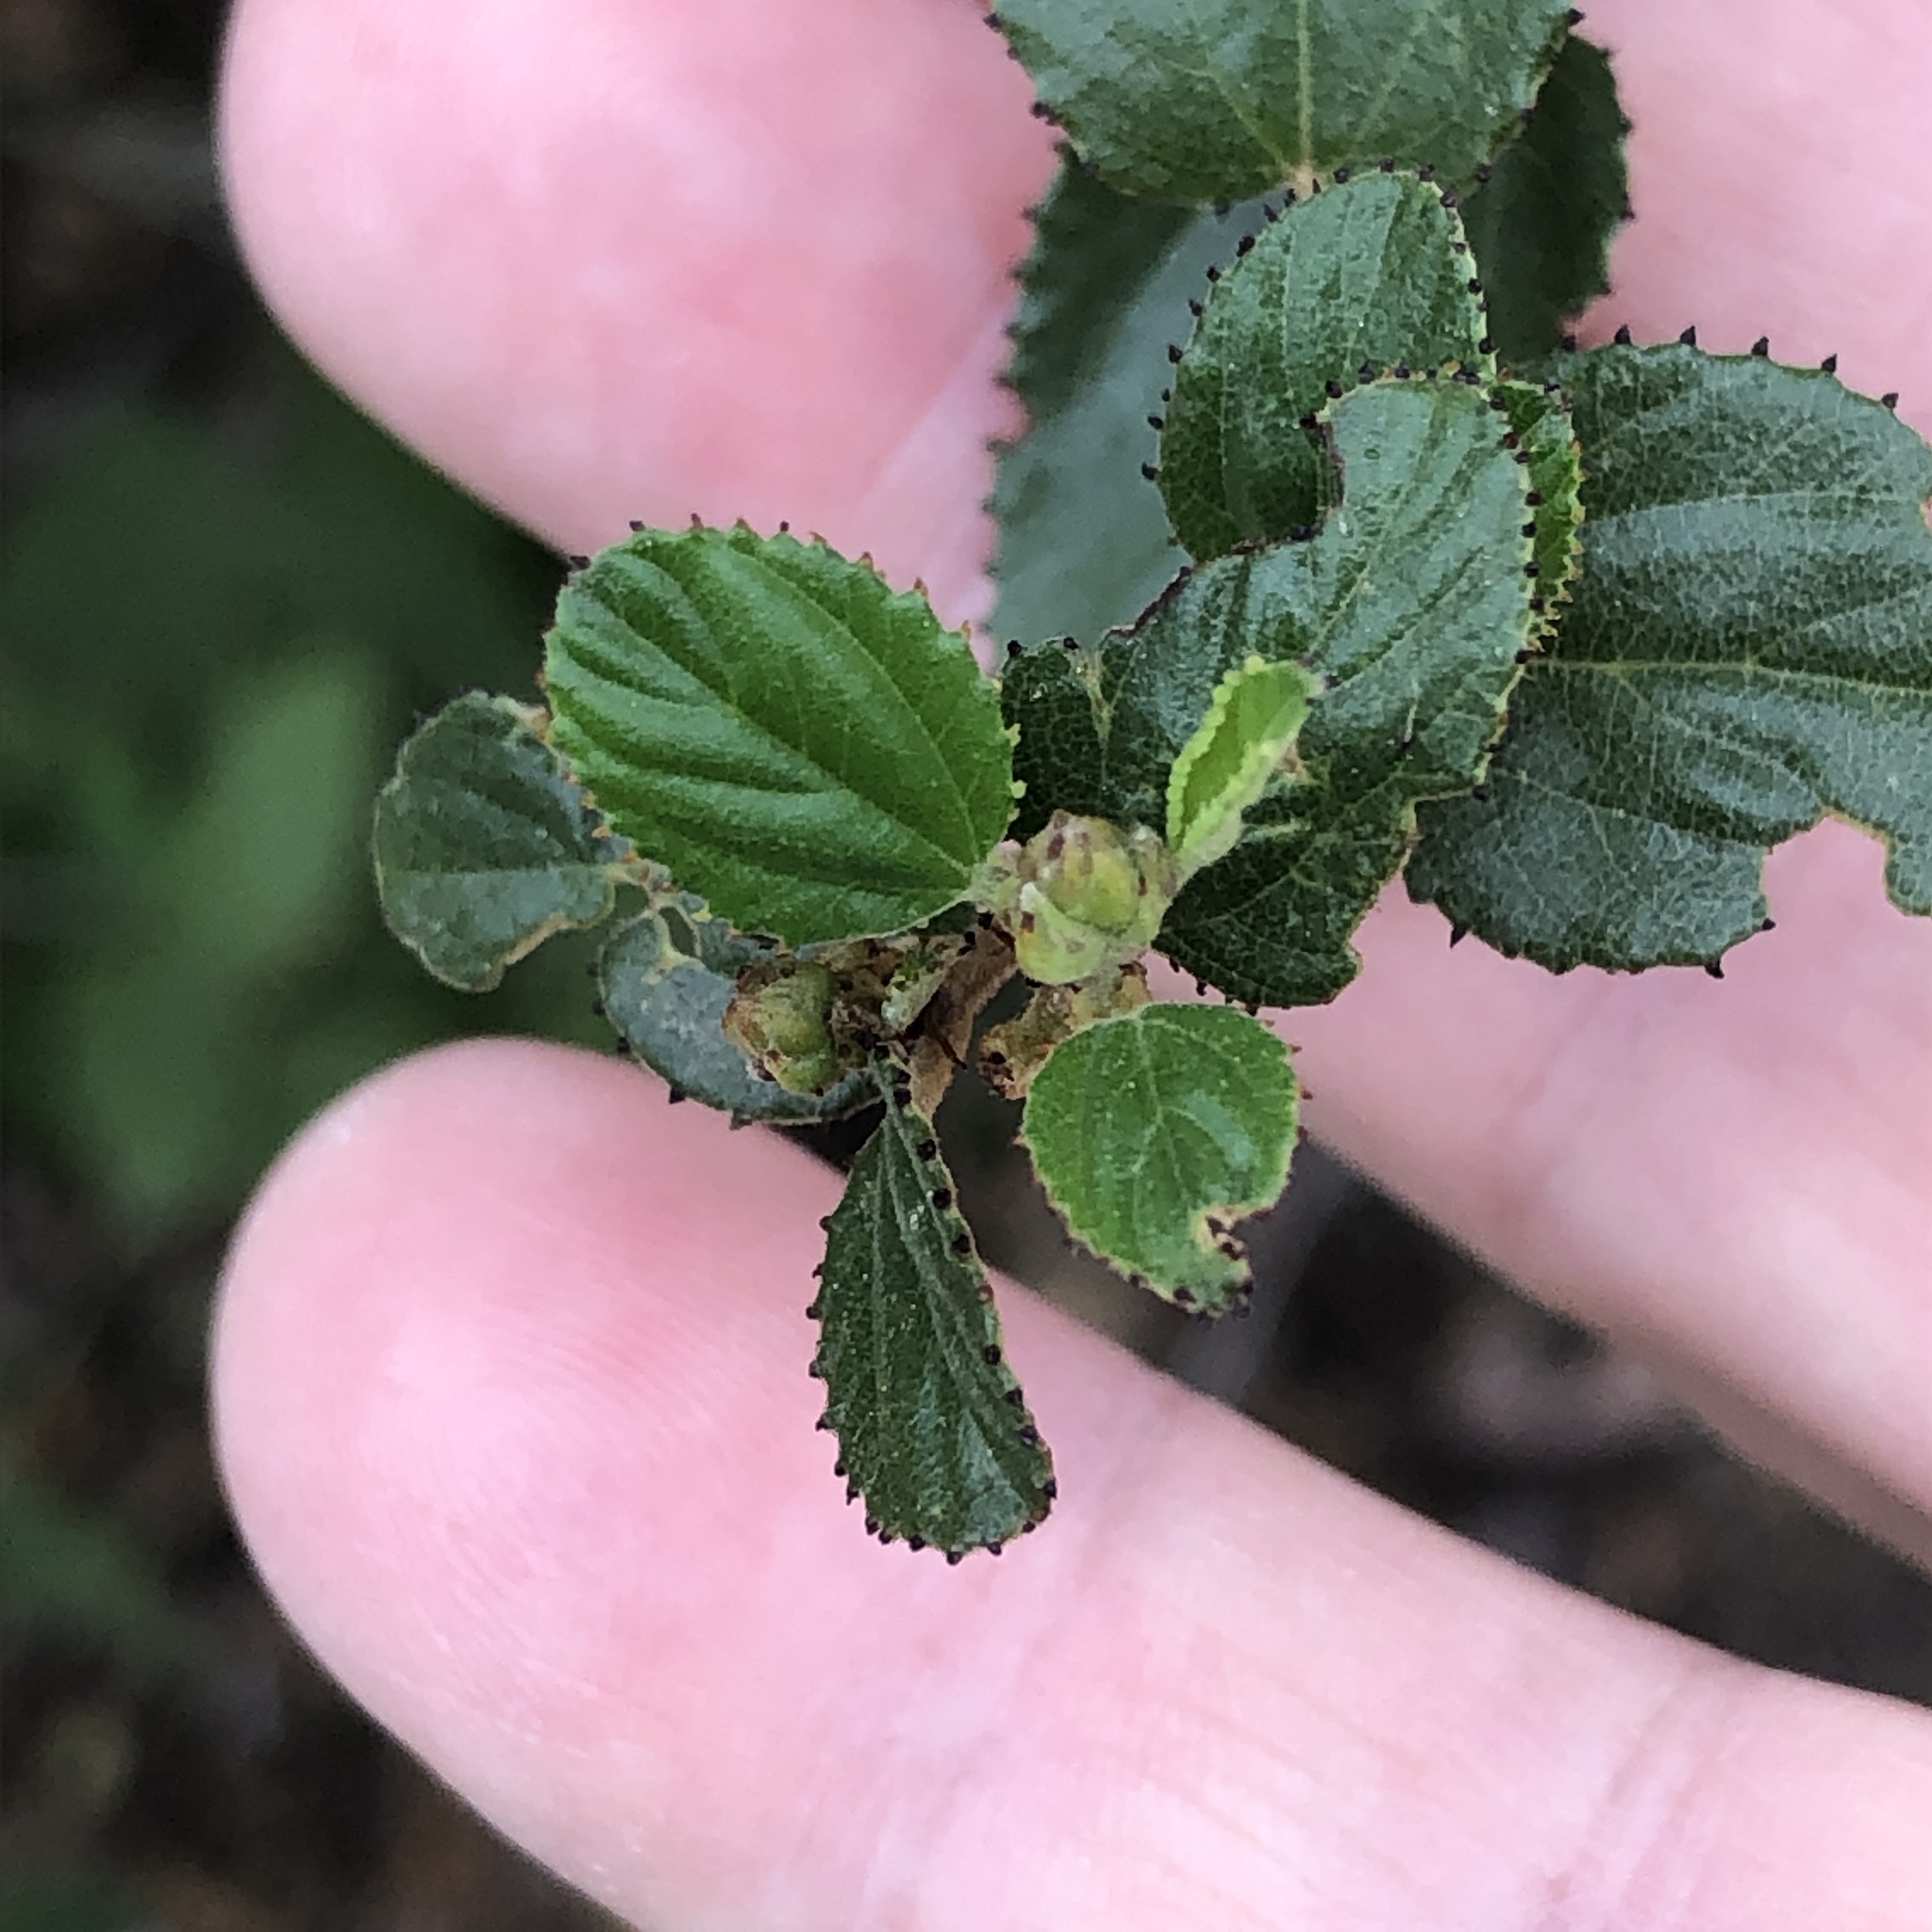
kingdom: Plantae
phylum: Tracheophyta
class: Magnoliopsida
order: Rosales
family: Rhamnaceae
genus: Ceanothus
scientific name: Ceanothus tomentosus
